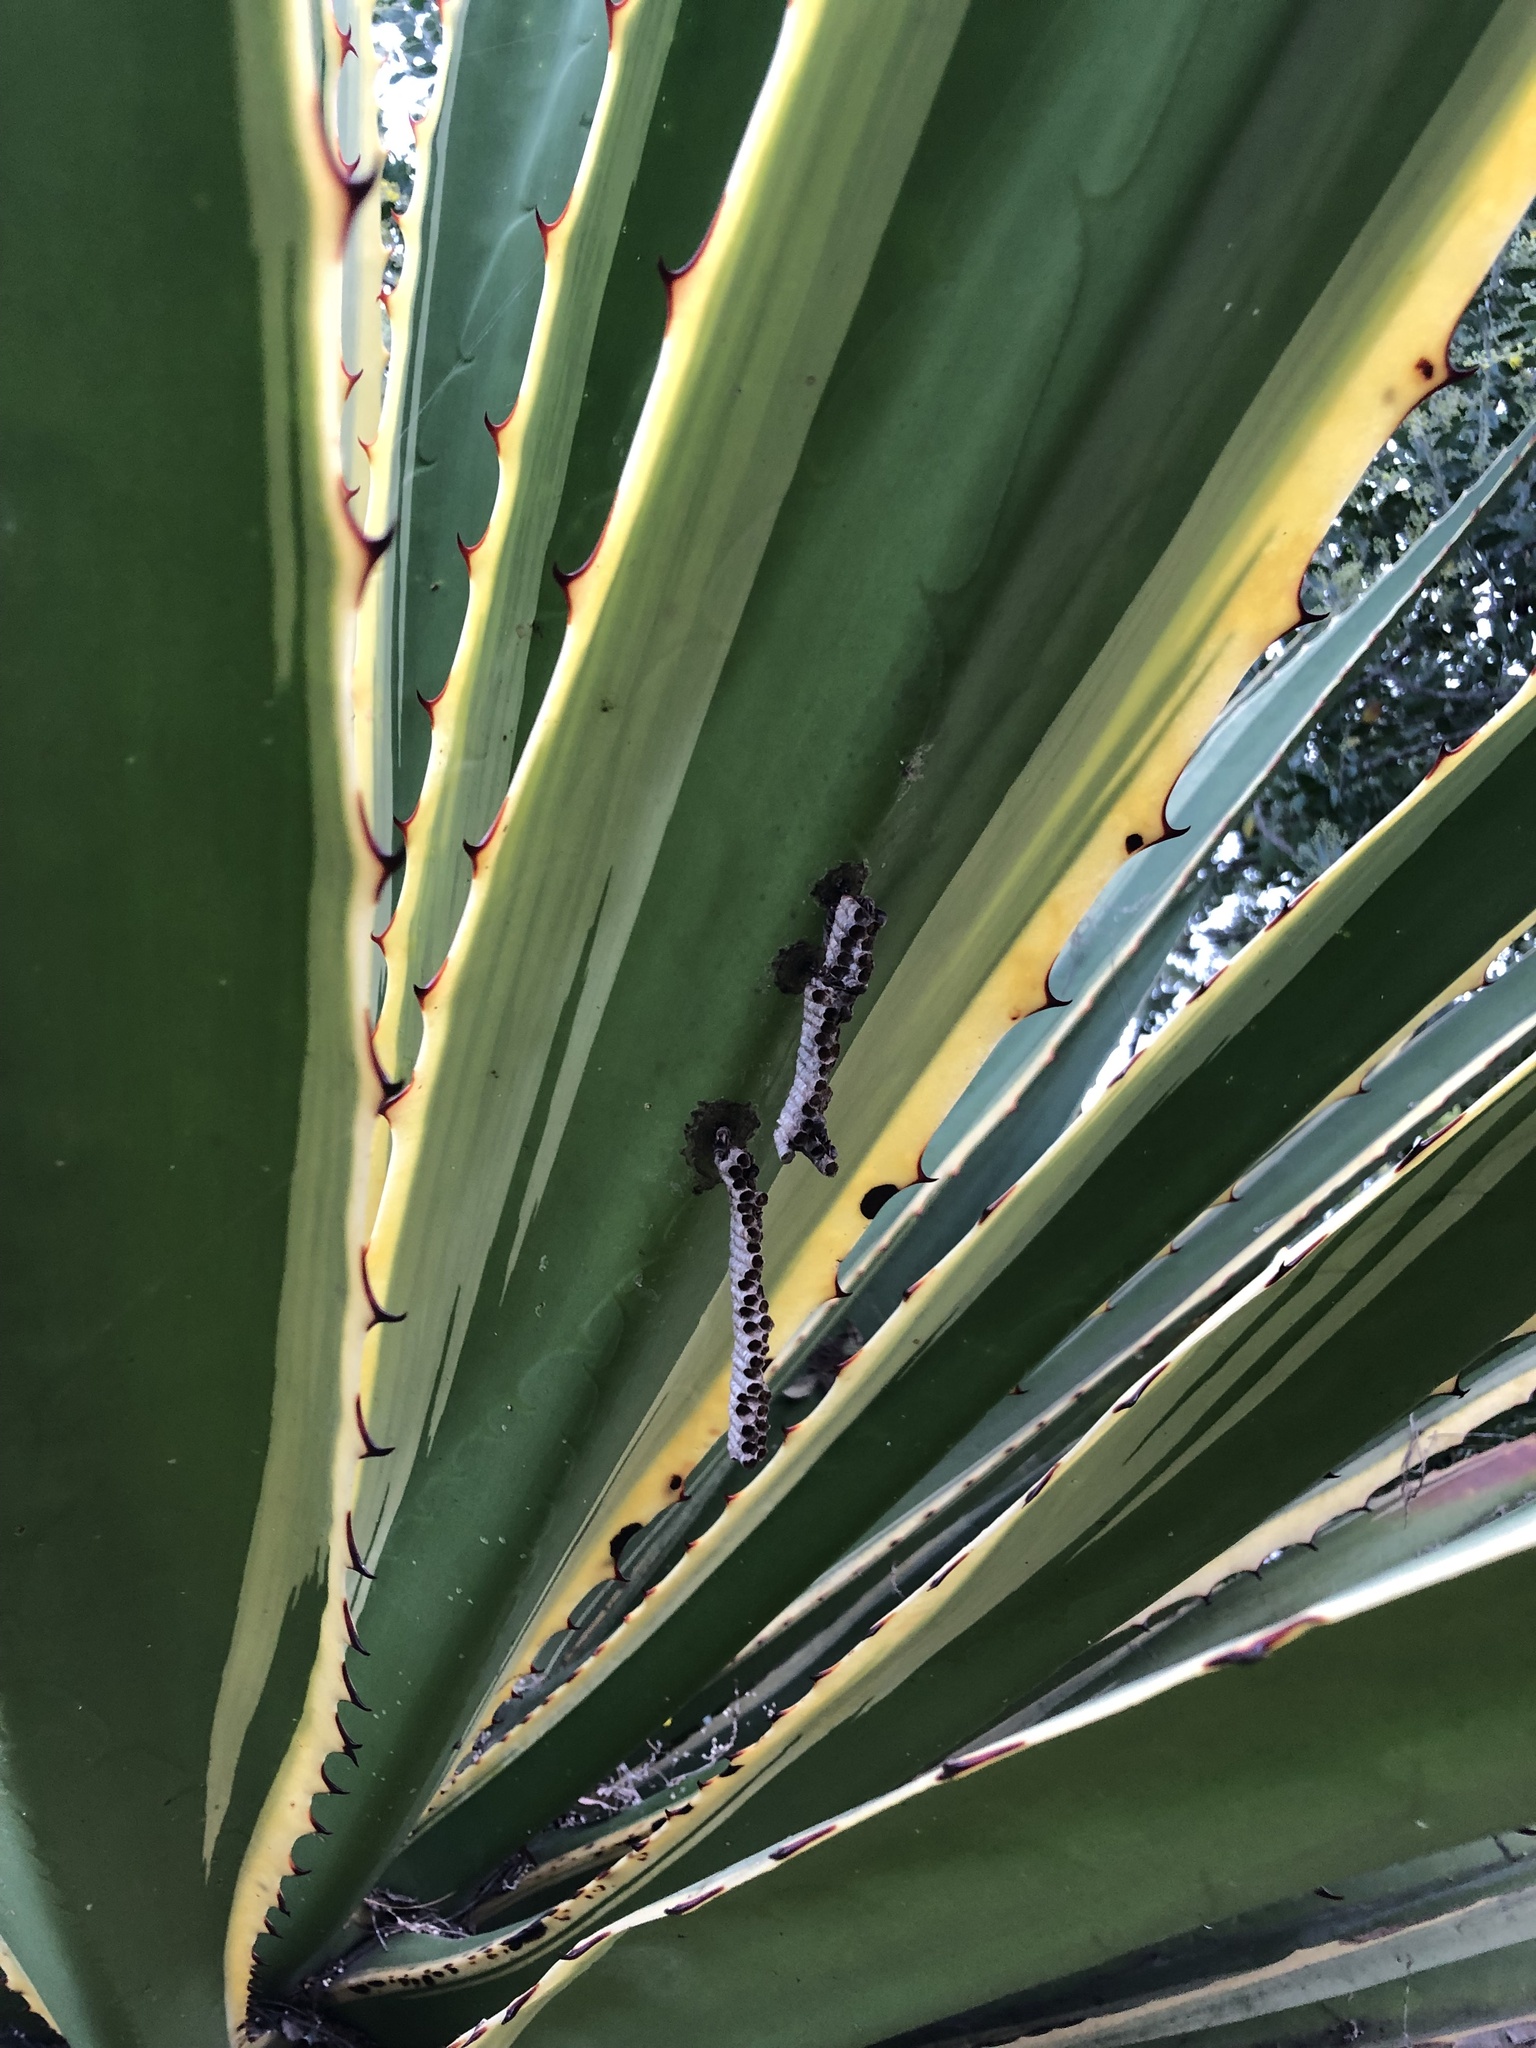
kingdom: Animalia
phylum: Arthropoda
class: Insecta
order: Hymenoptera
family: Vespidae
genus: Ropalidia
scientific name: Ropalidia revolutionalis
